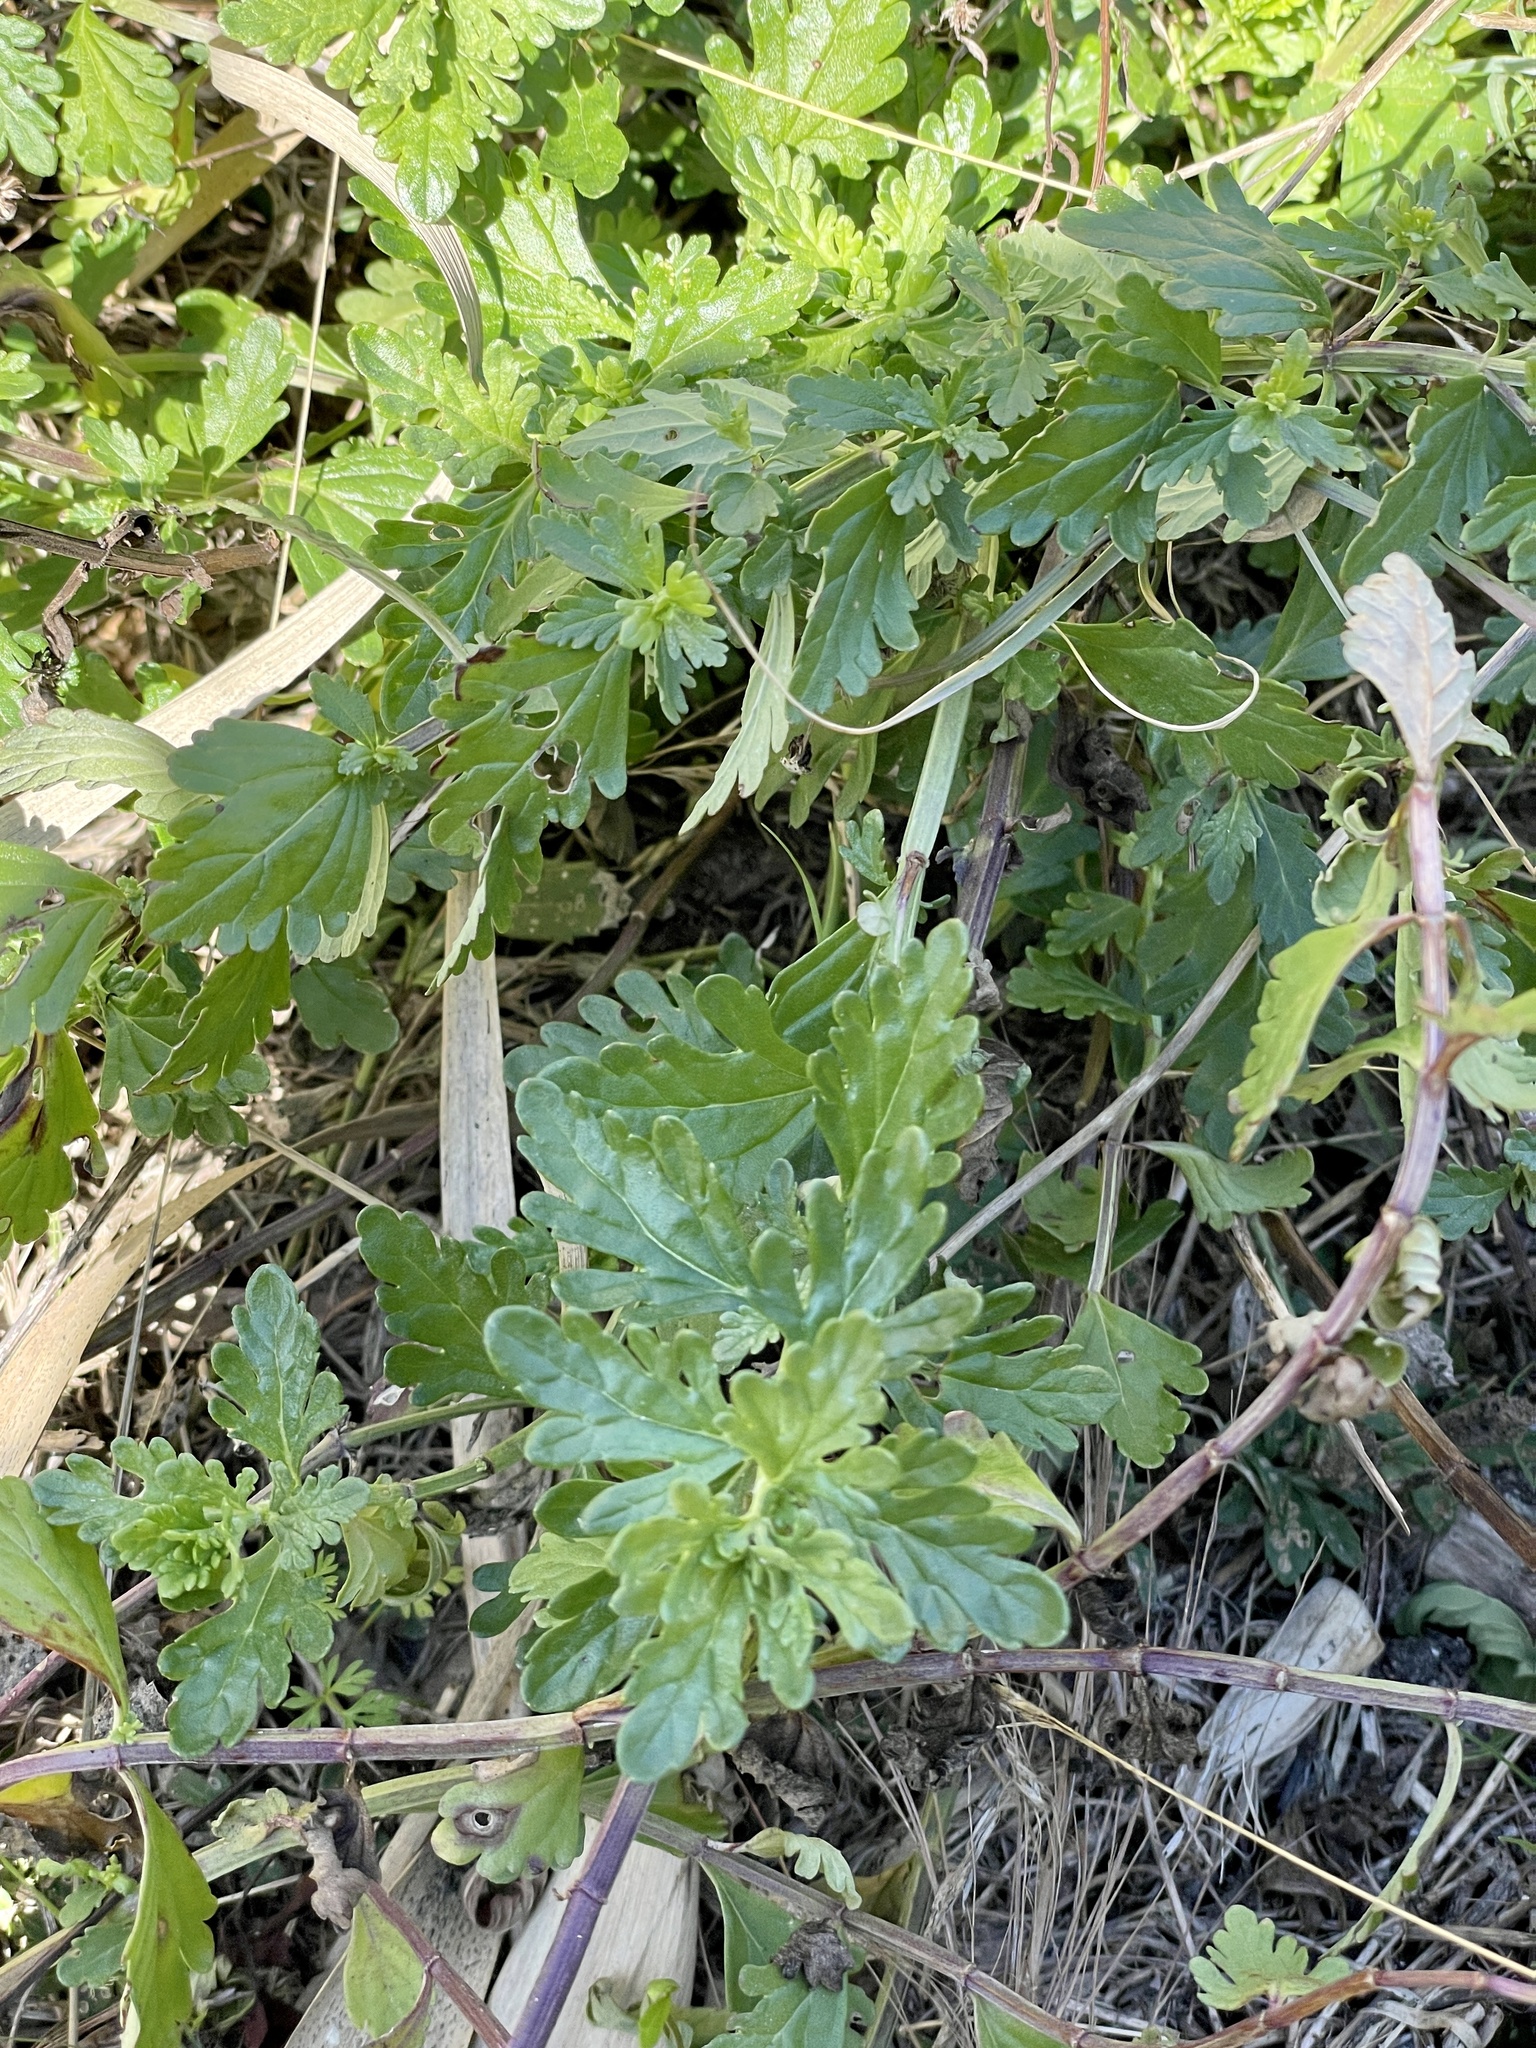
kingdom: Plantae
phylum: Tracheophyta
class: Magnoliopsida
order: Lamiales
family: Lamiaceae
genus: Teucrium
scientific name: Teucrium cubense
